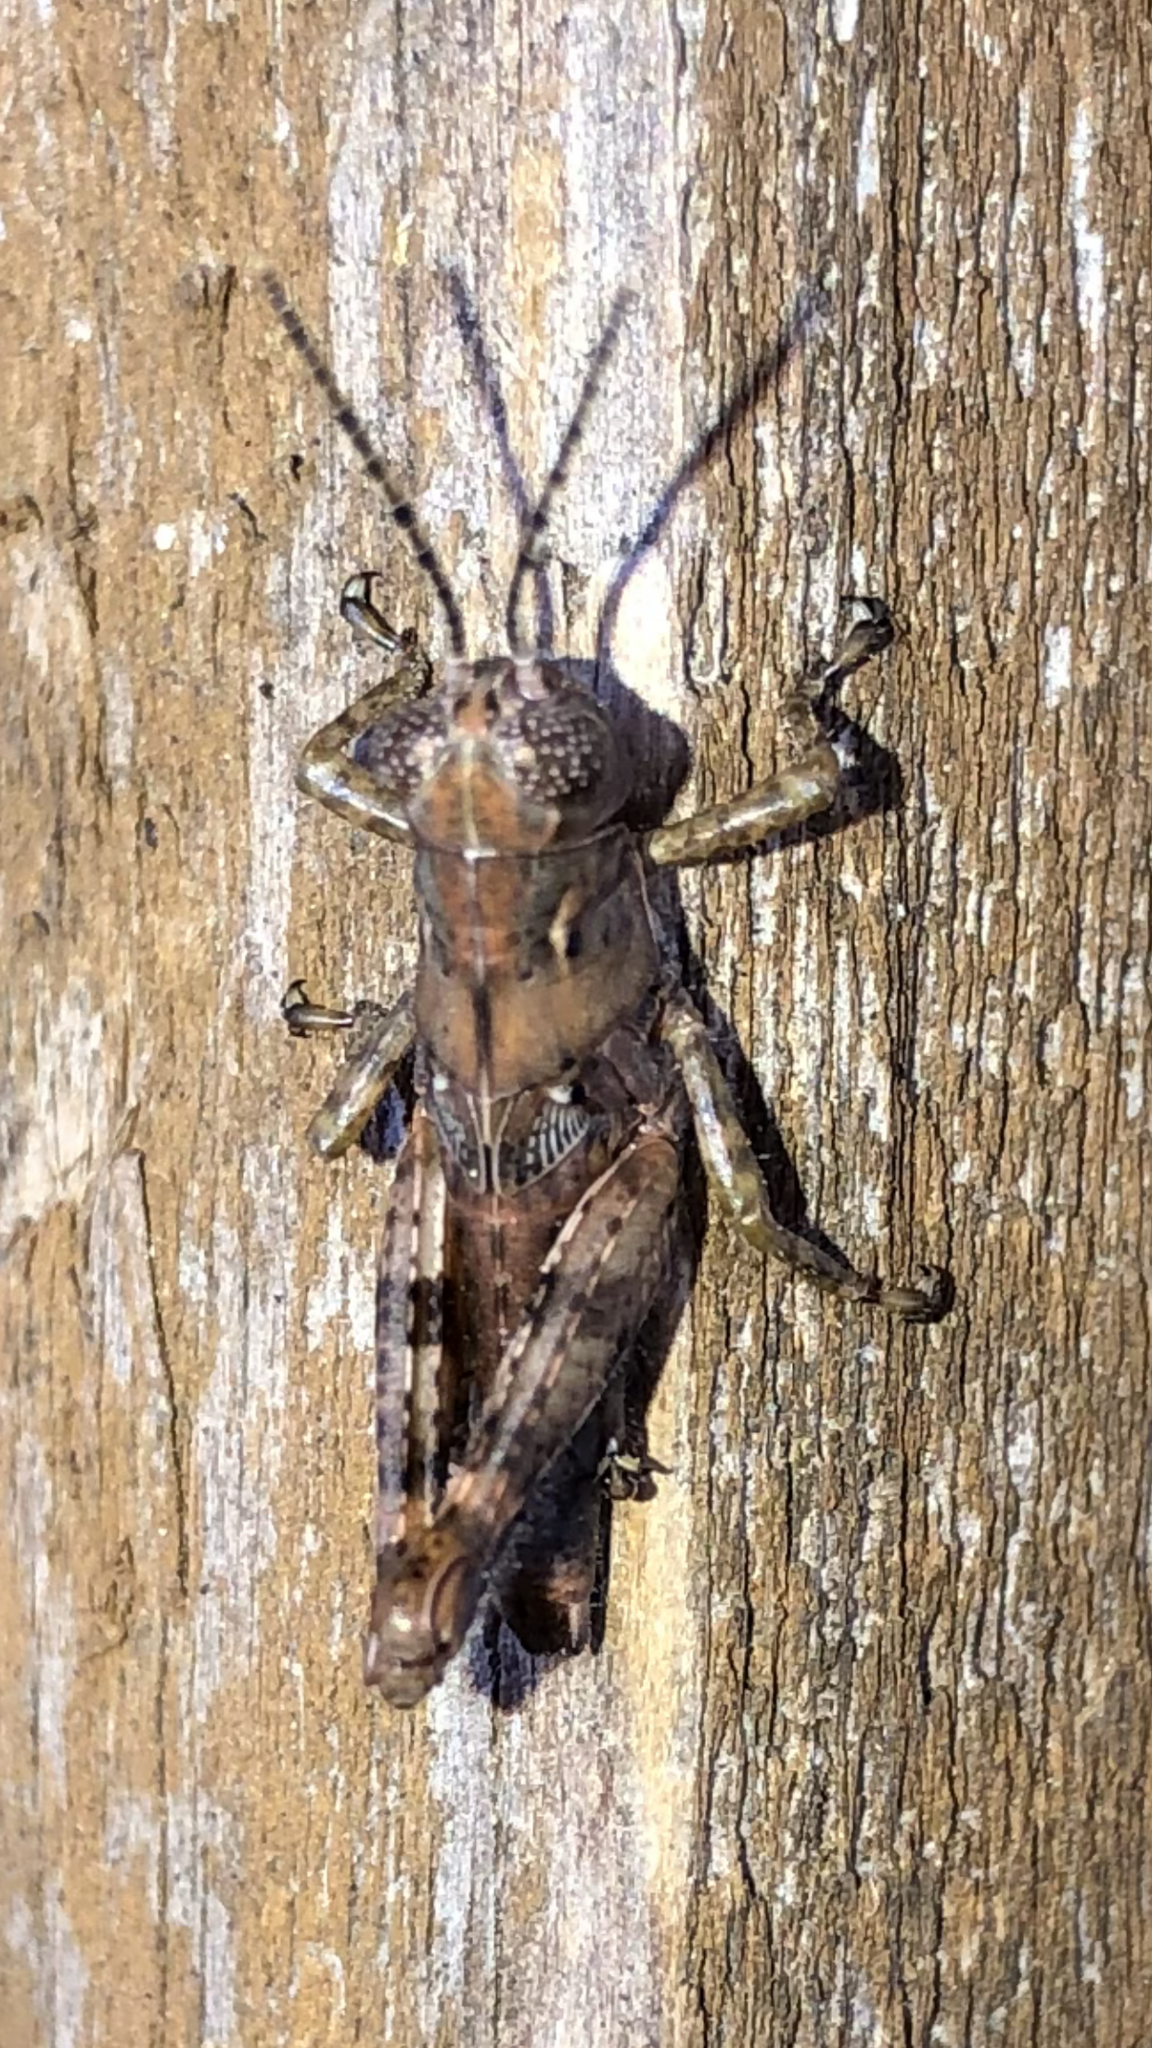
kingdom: Animalia
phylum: Arthropoda
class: Insecta
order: Orthoptera
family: Acrididae
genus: Melanoplus
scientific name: Melanoplus punctulatus
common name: Pine-tree spur-throat grasshopper
